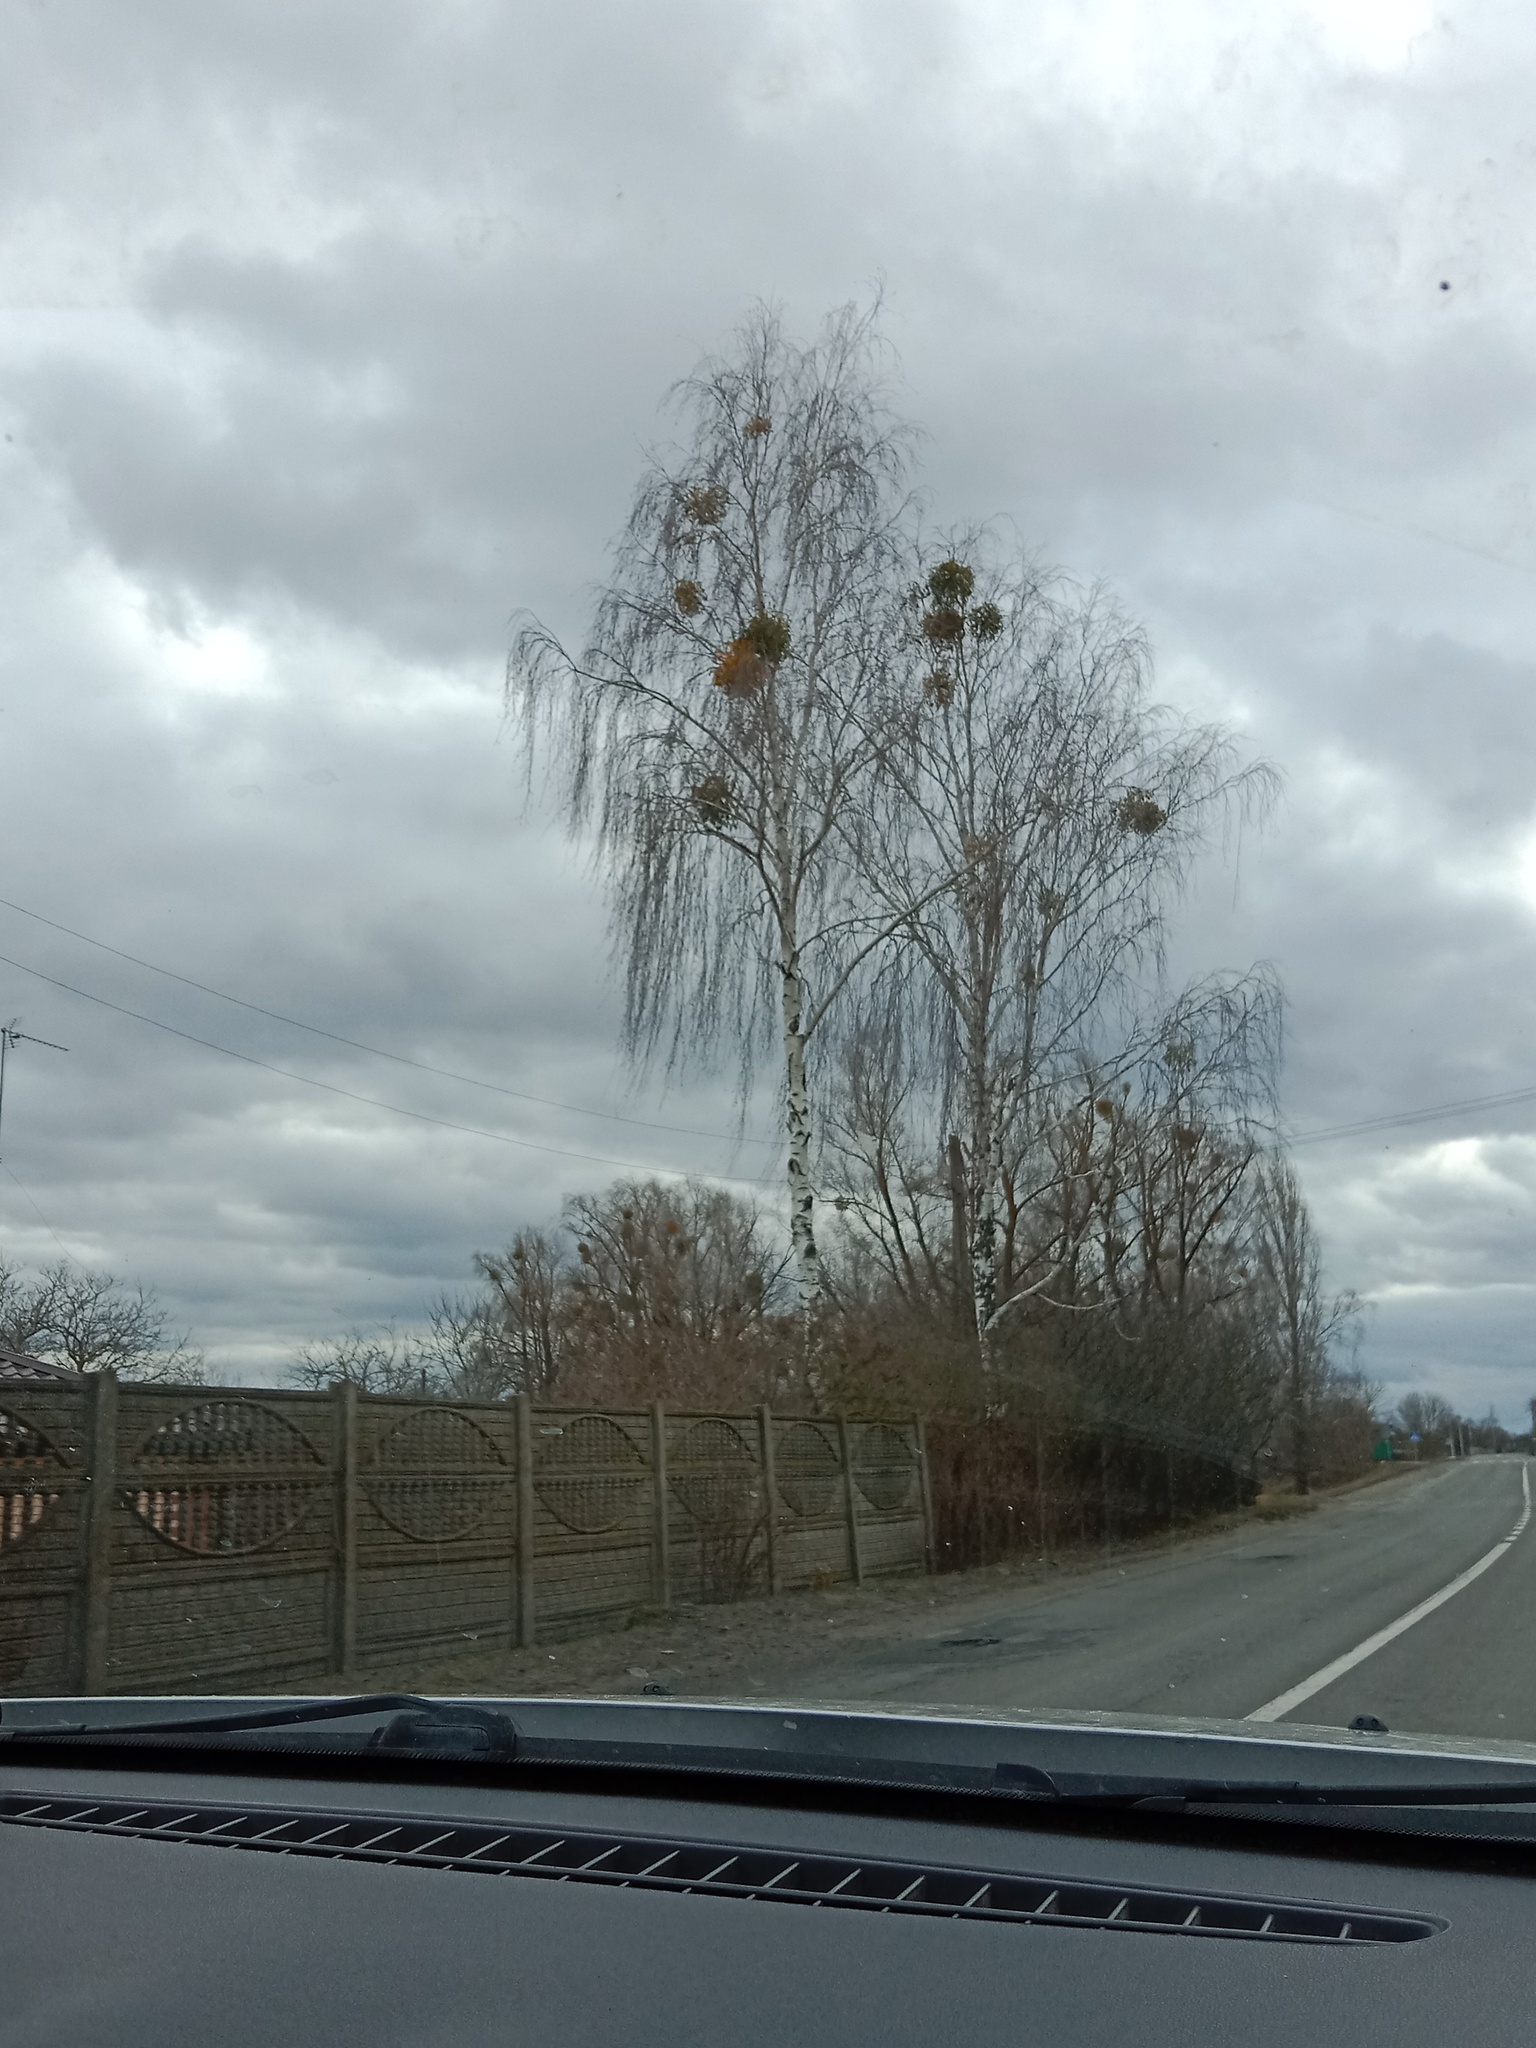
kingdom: Plantae
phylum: Tracheophyta
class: Magnoliopsida
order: Santalales
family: Viscaceae
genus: Viscum
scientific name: Viscum album
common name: Mistletoe
